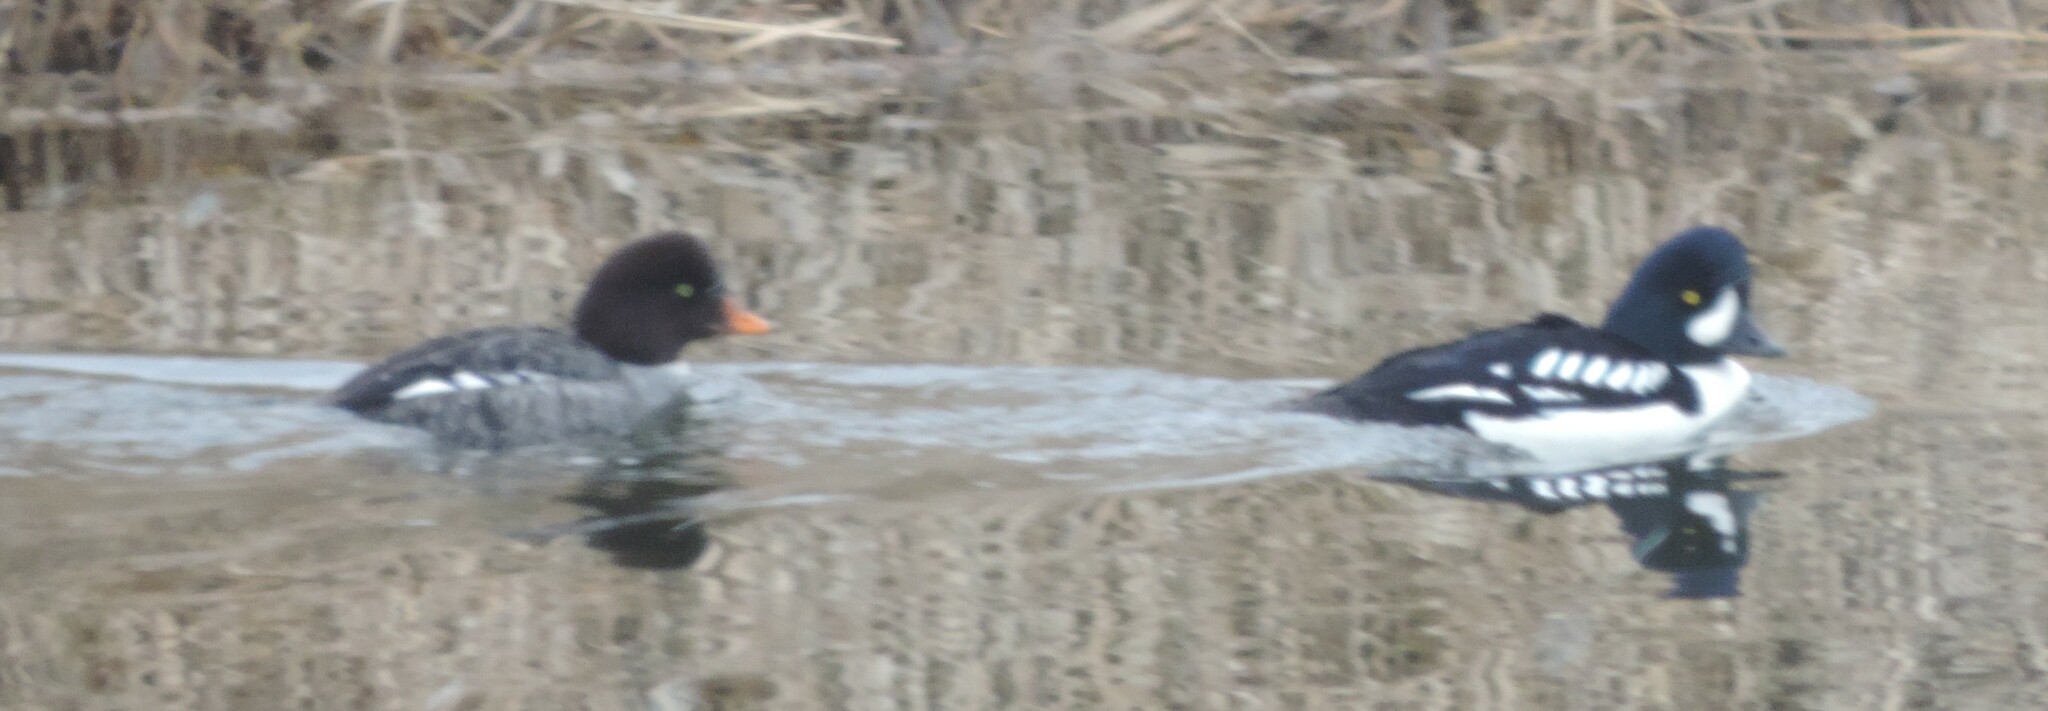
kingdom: Animalia
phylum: Chordata
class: Aves
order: Anseriformes
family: Anatidae
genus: Bucephala
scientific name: Bucephala islandica
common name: Barrow's goldeneye
